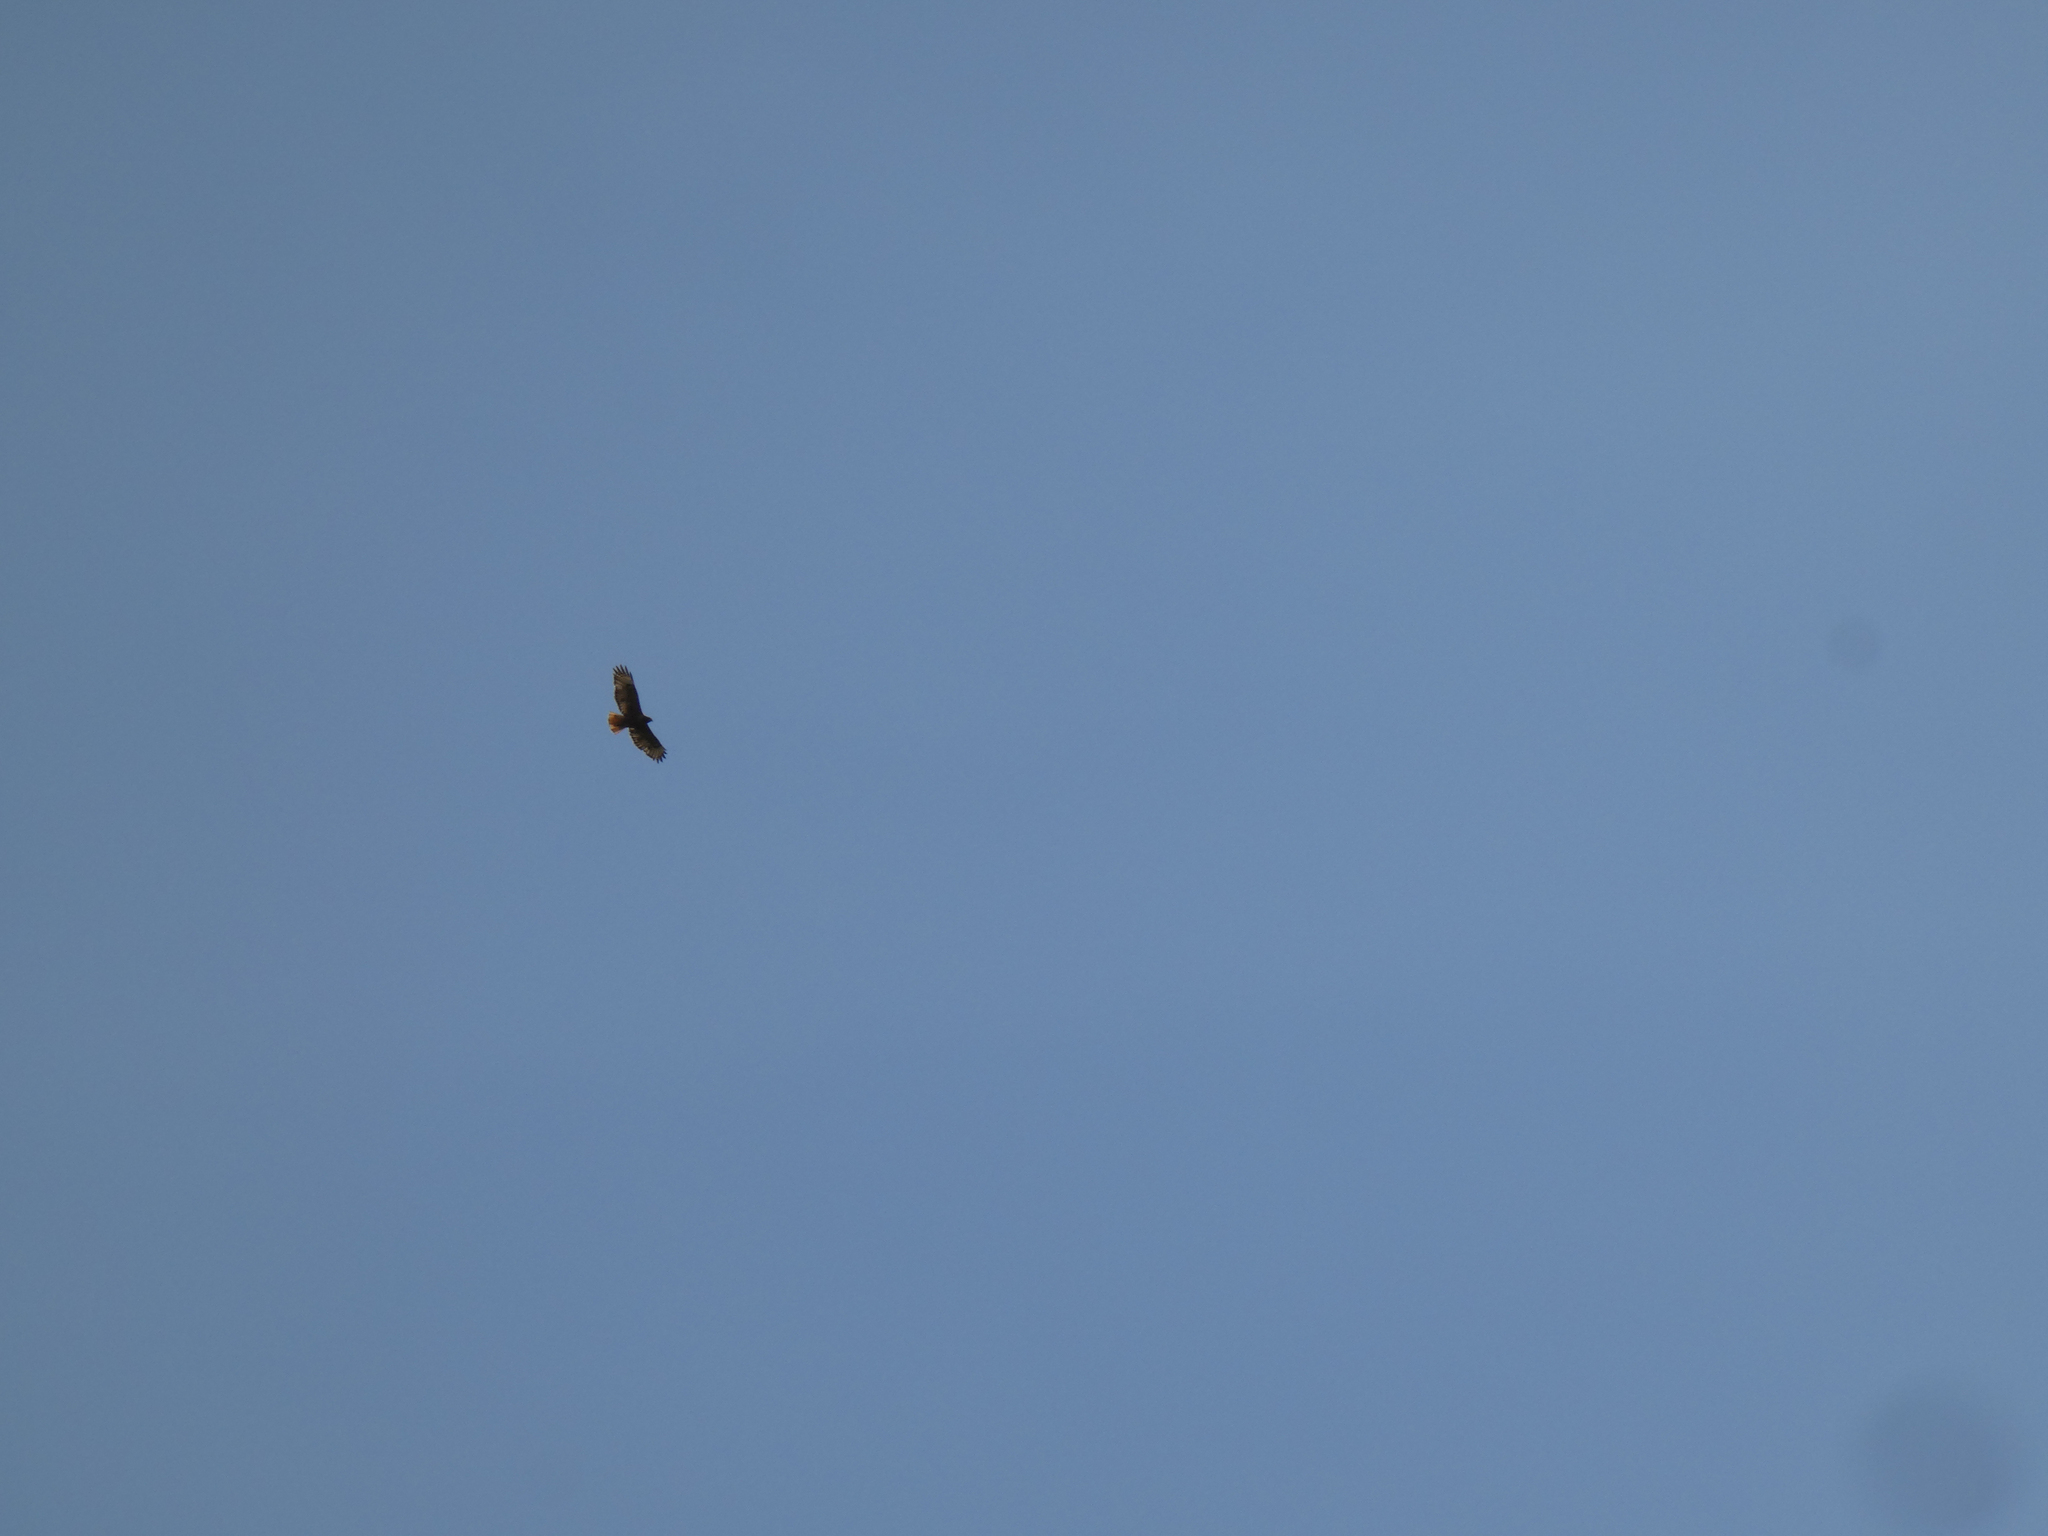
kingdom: Animalia
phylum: Chordata
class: Aves
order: Accipitriformes
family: Accipitridae
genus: Buteo
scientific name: Buteo jamaicensis
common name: Red-tailed hawk
